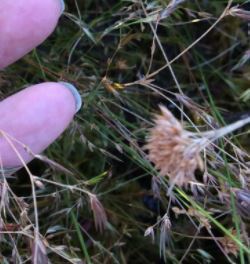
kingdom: Plantae
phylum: Tracheophyta
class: Liliopsida
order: Poales
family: Cyperaceae
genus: Rhynchospora
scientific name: Rhynchospora alba
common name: White beak-sedge
